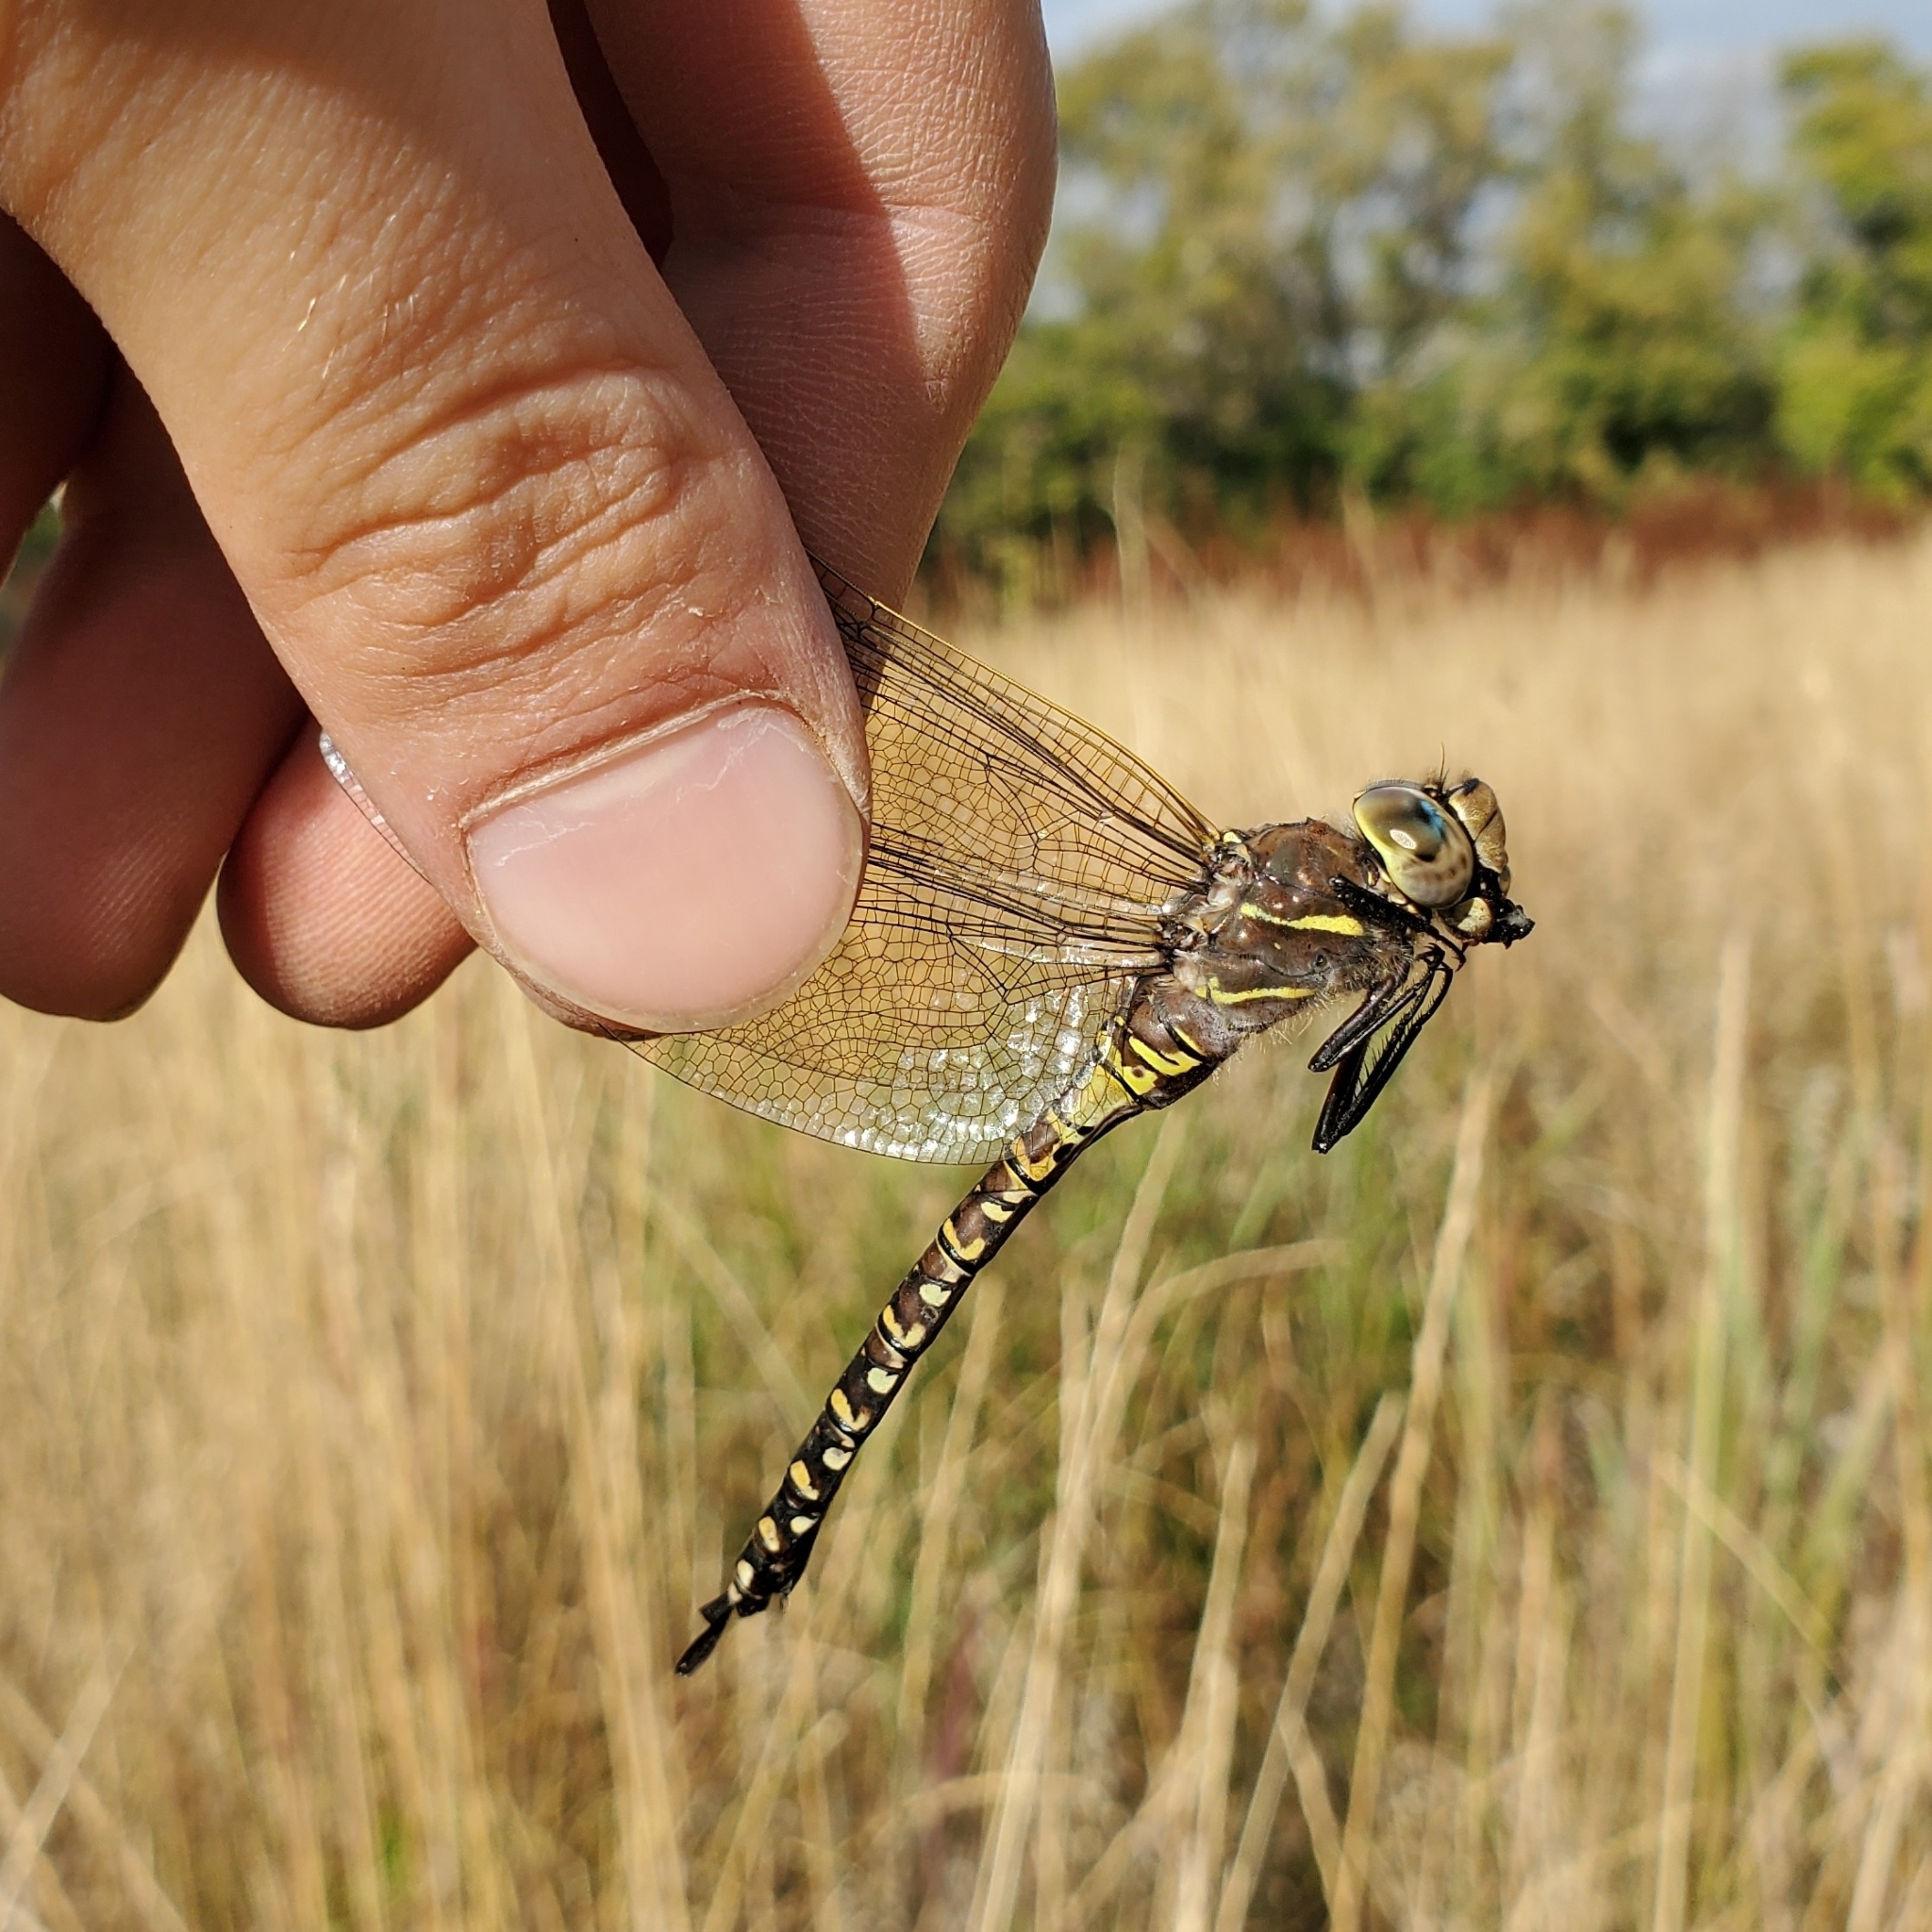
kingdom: Animalia
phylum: Arthropoda
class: Insecta
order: Odonata
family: Aeshnidae
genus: Aeshna
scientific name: Aeshna interrupta
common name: Variable darner
